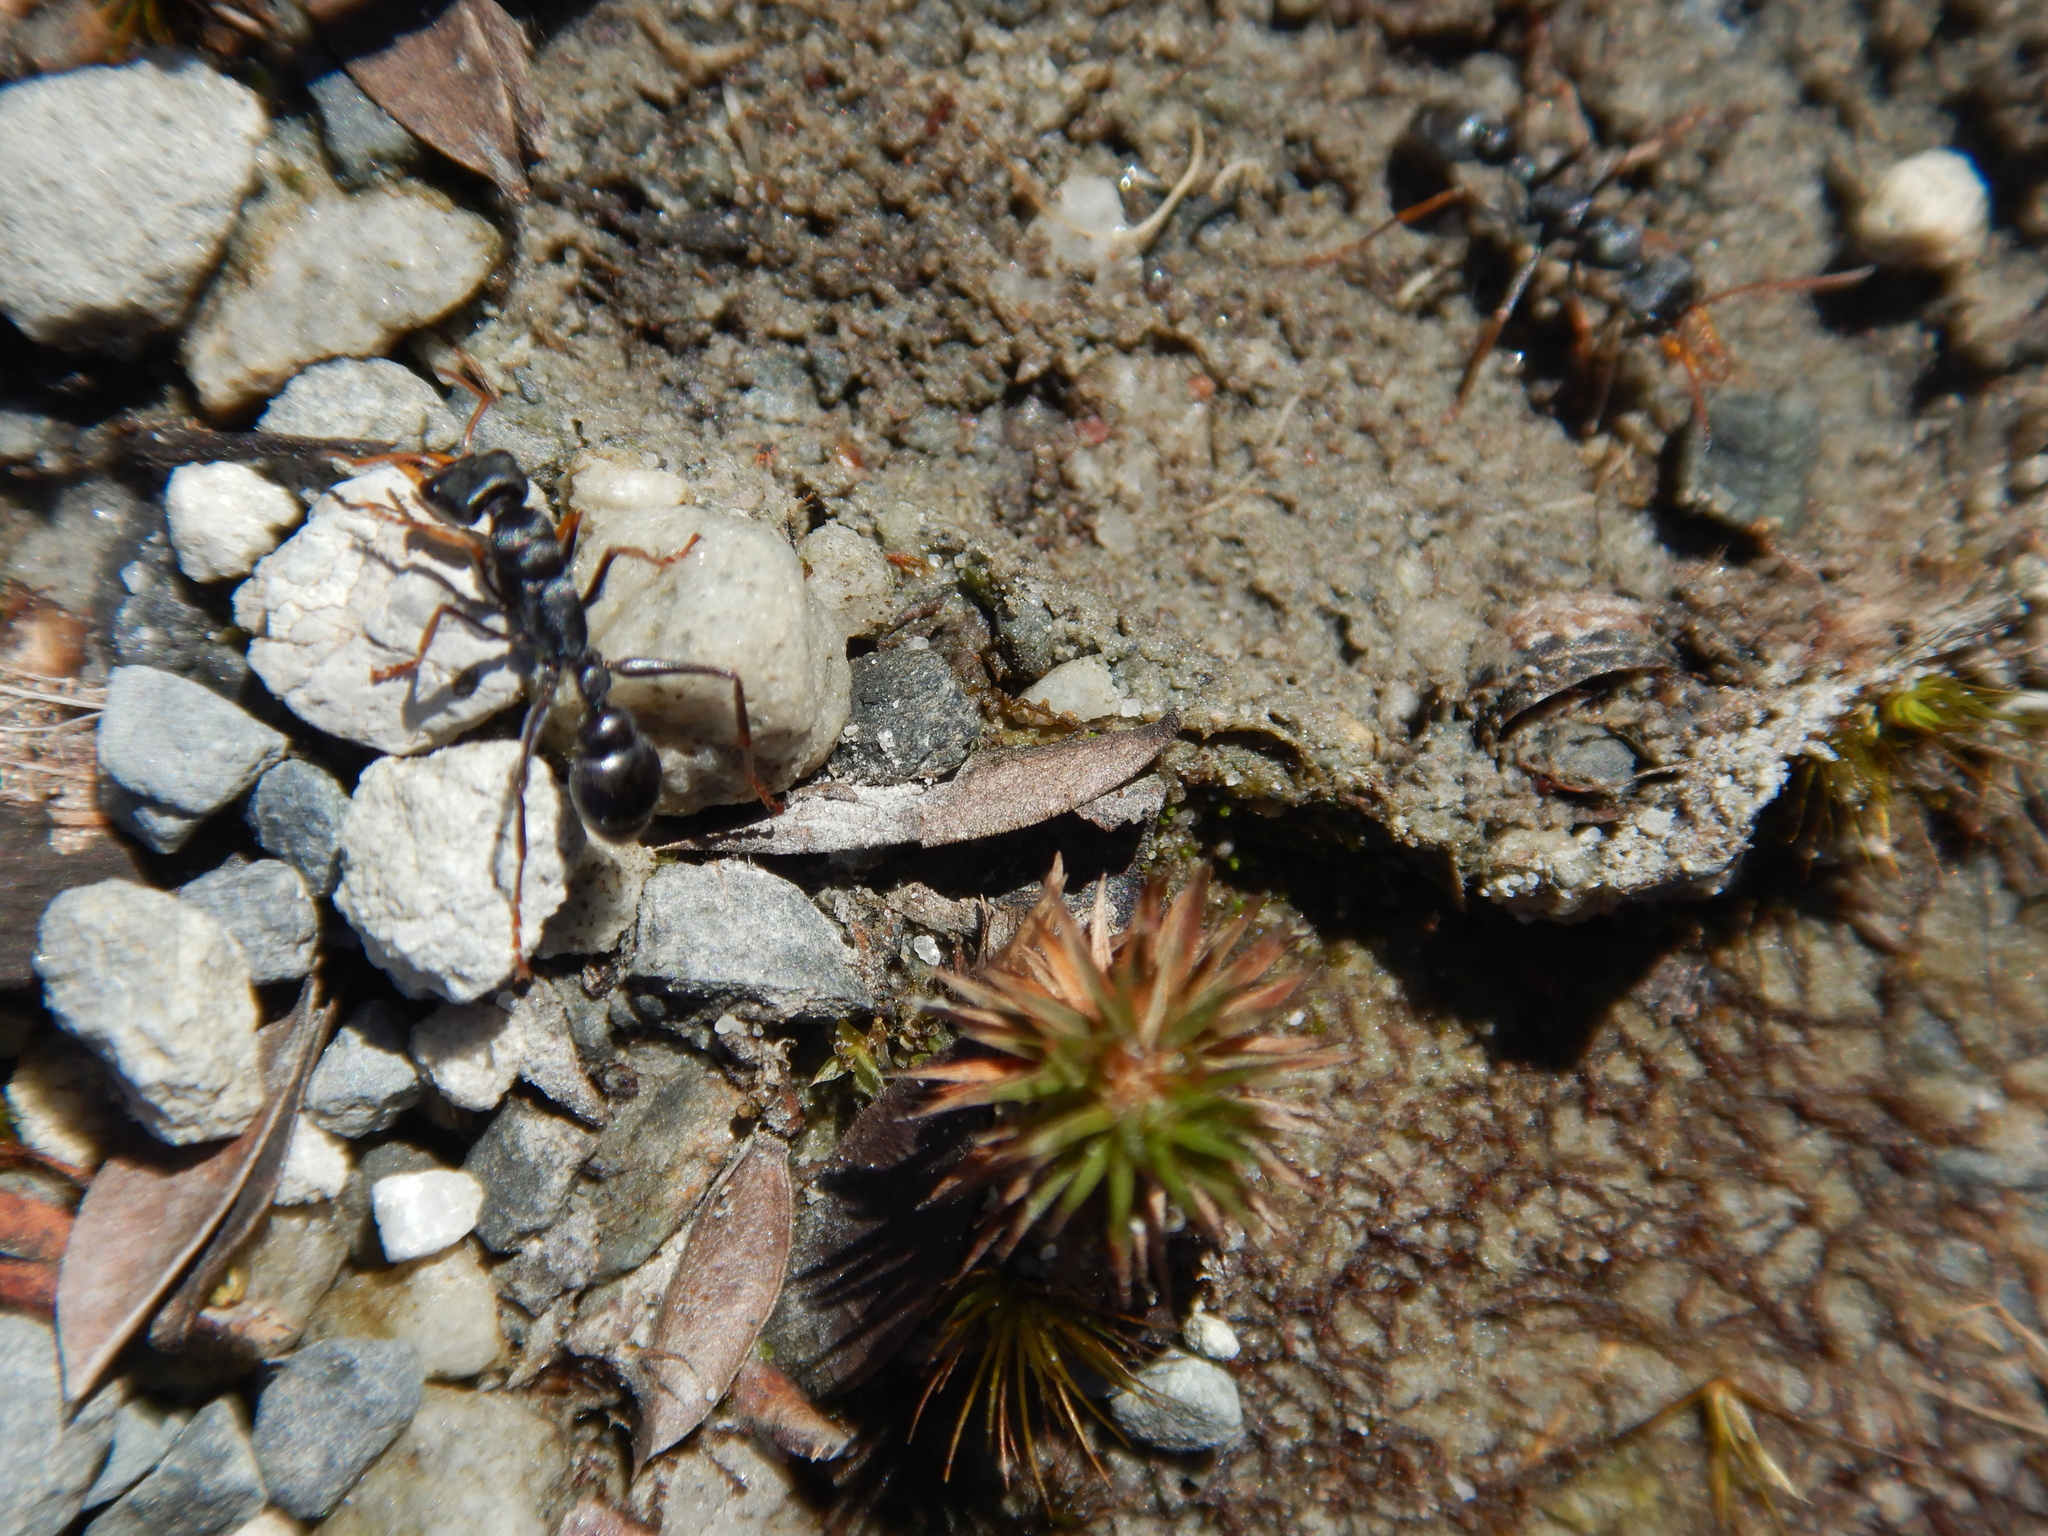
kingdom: Animalia
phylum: Arthropoda
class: Insecta
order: Hymenoptera
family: Formicidae
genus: Myrmecia
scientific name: Myrmecia pilosula
